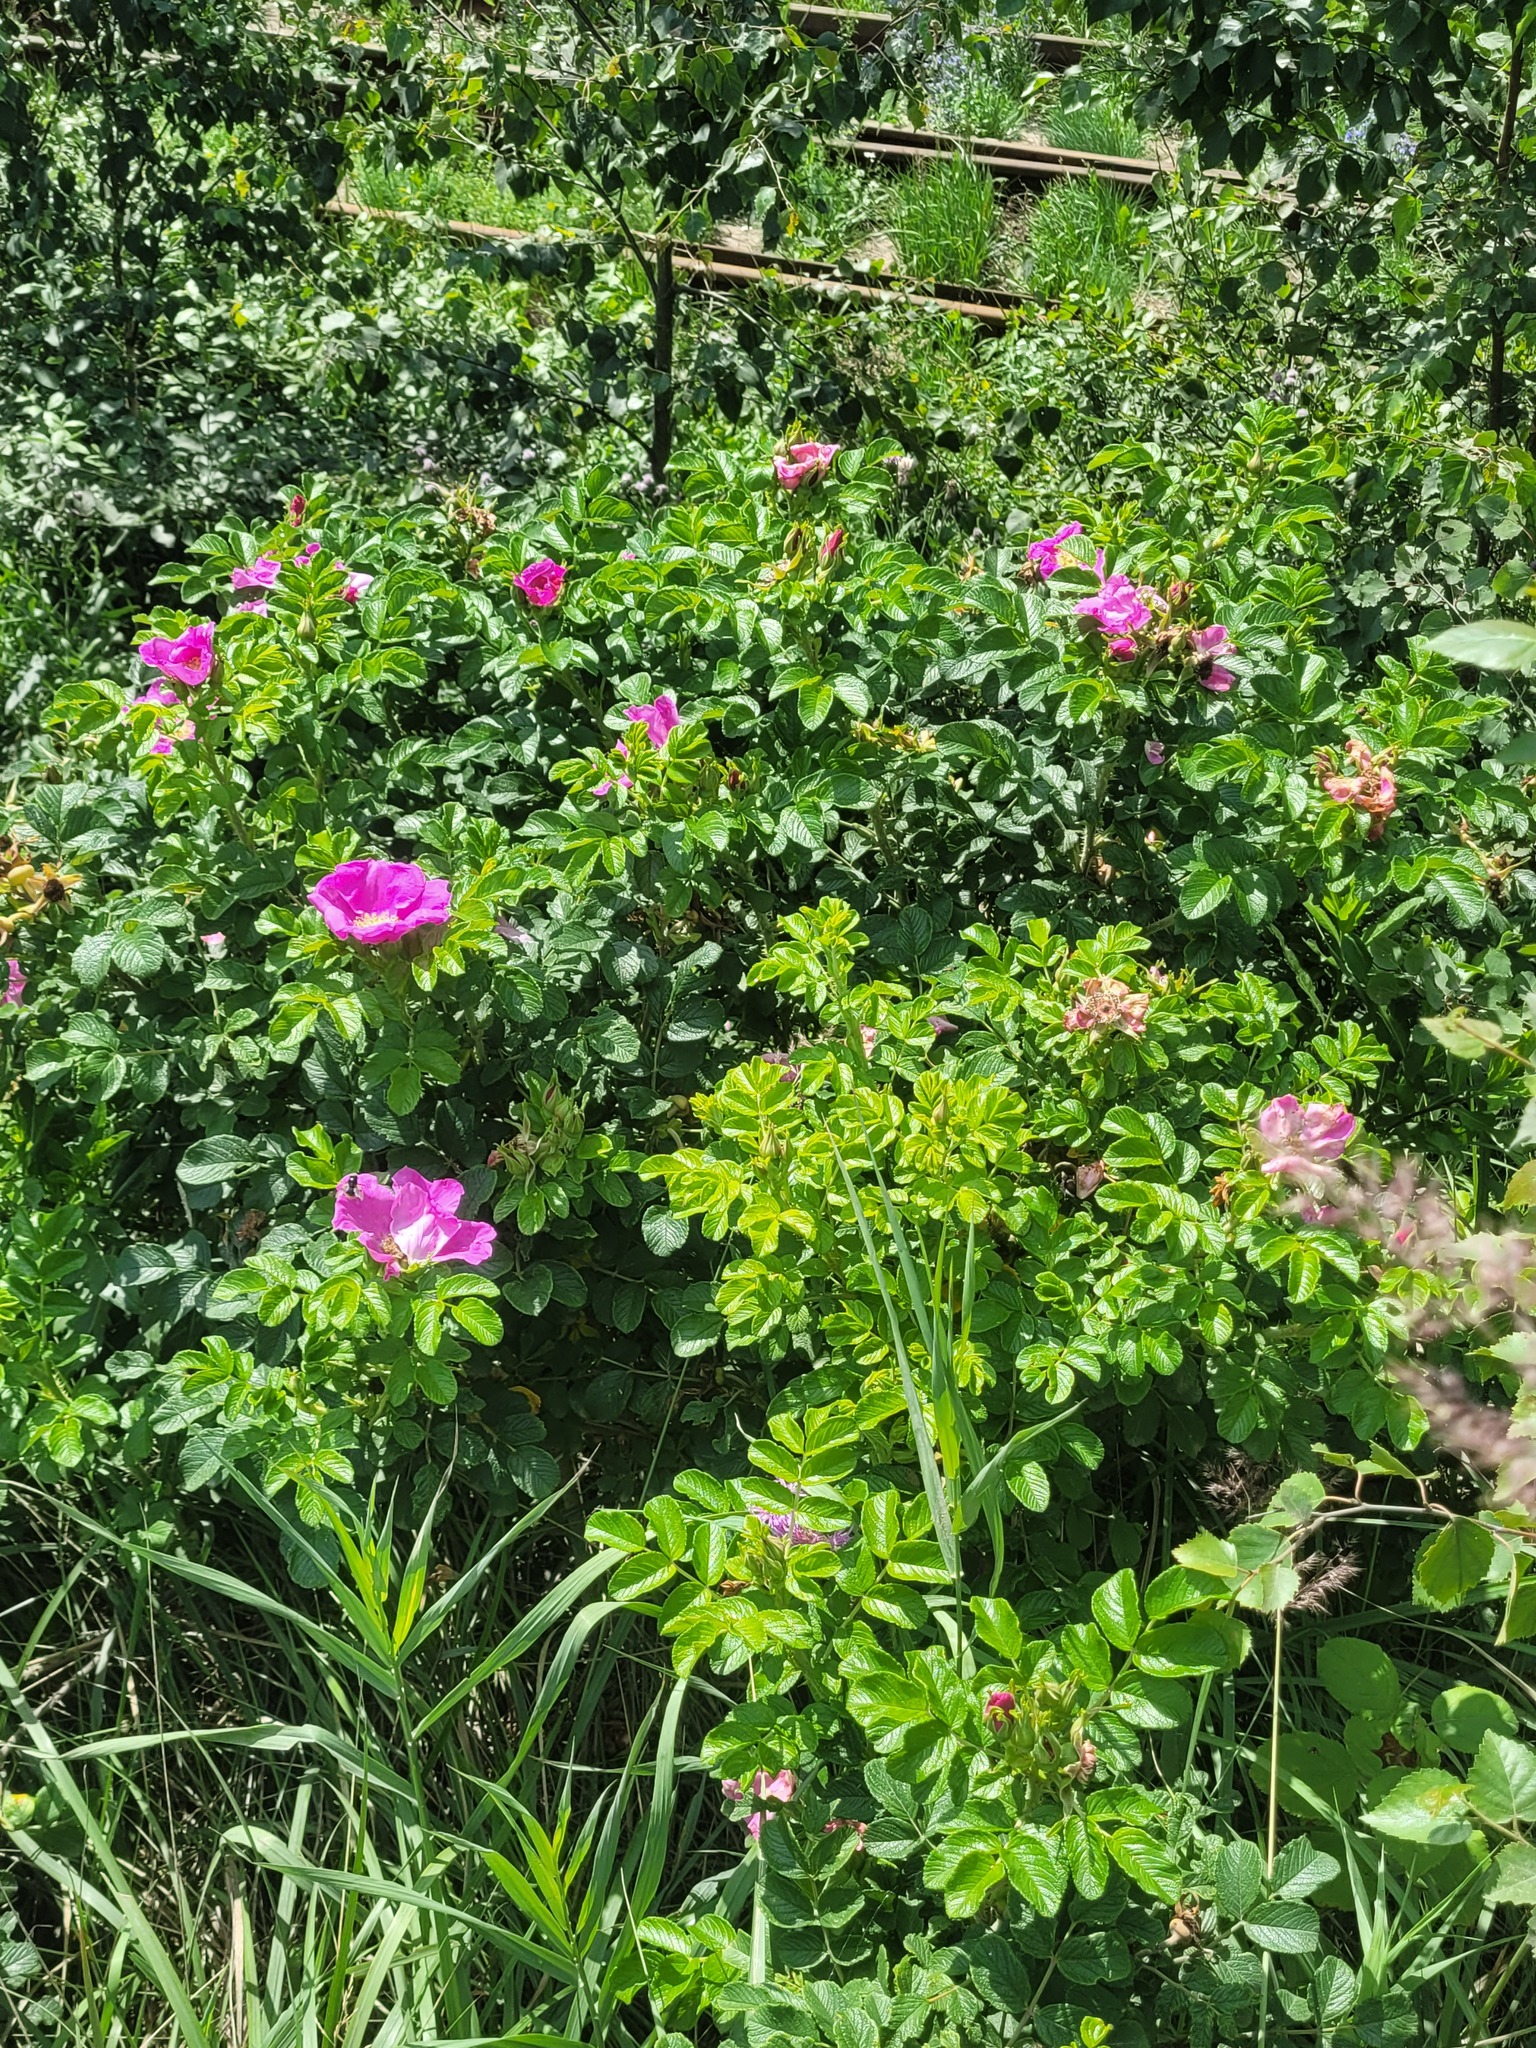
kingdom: Plantae
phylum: Tracheophyta
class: Magnoliopsida
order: Rosales
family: Rosaceae
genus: Rosa
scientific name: Rosa rugosa
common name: Japanese rose
